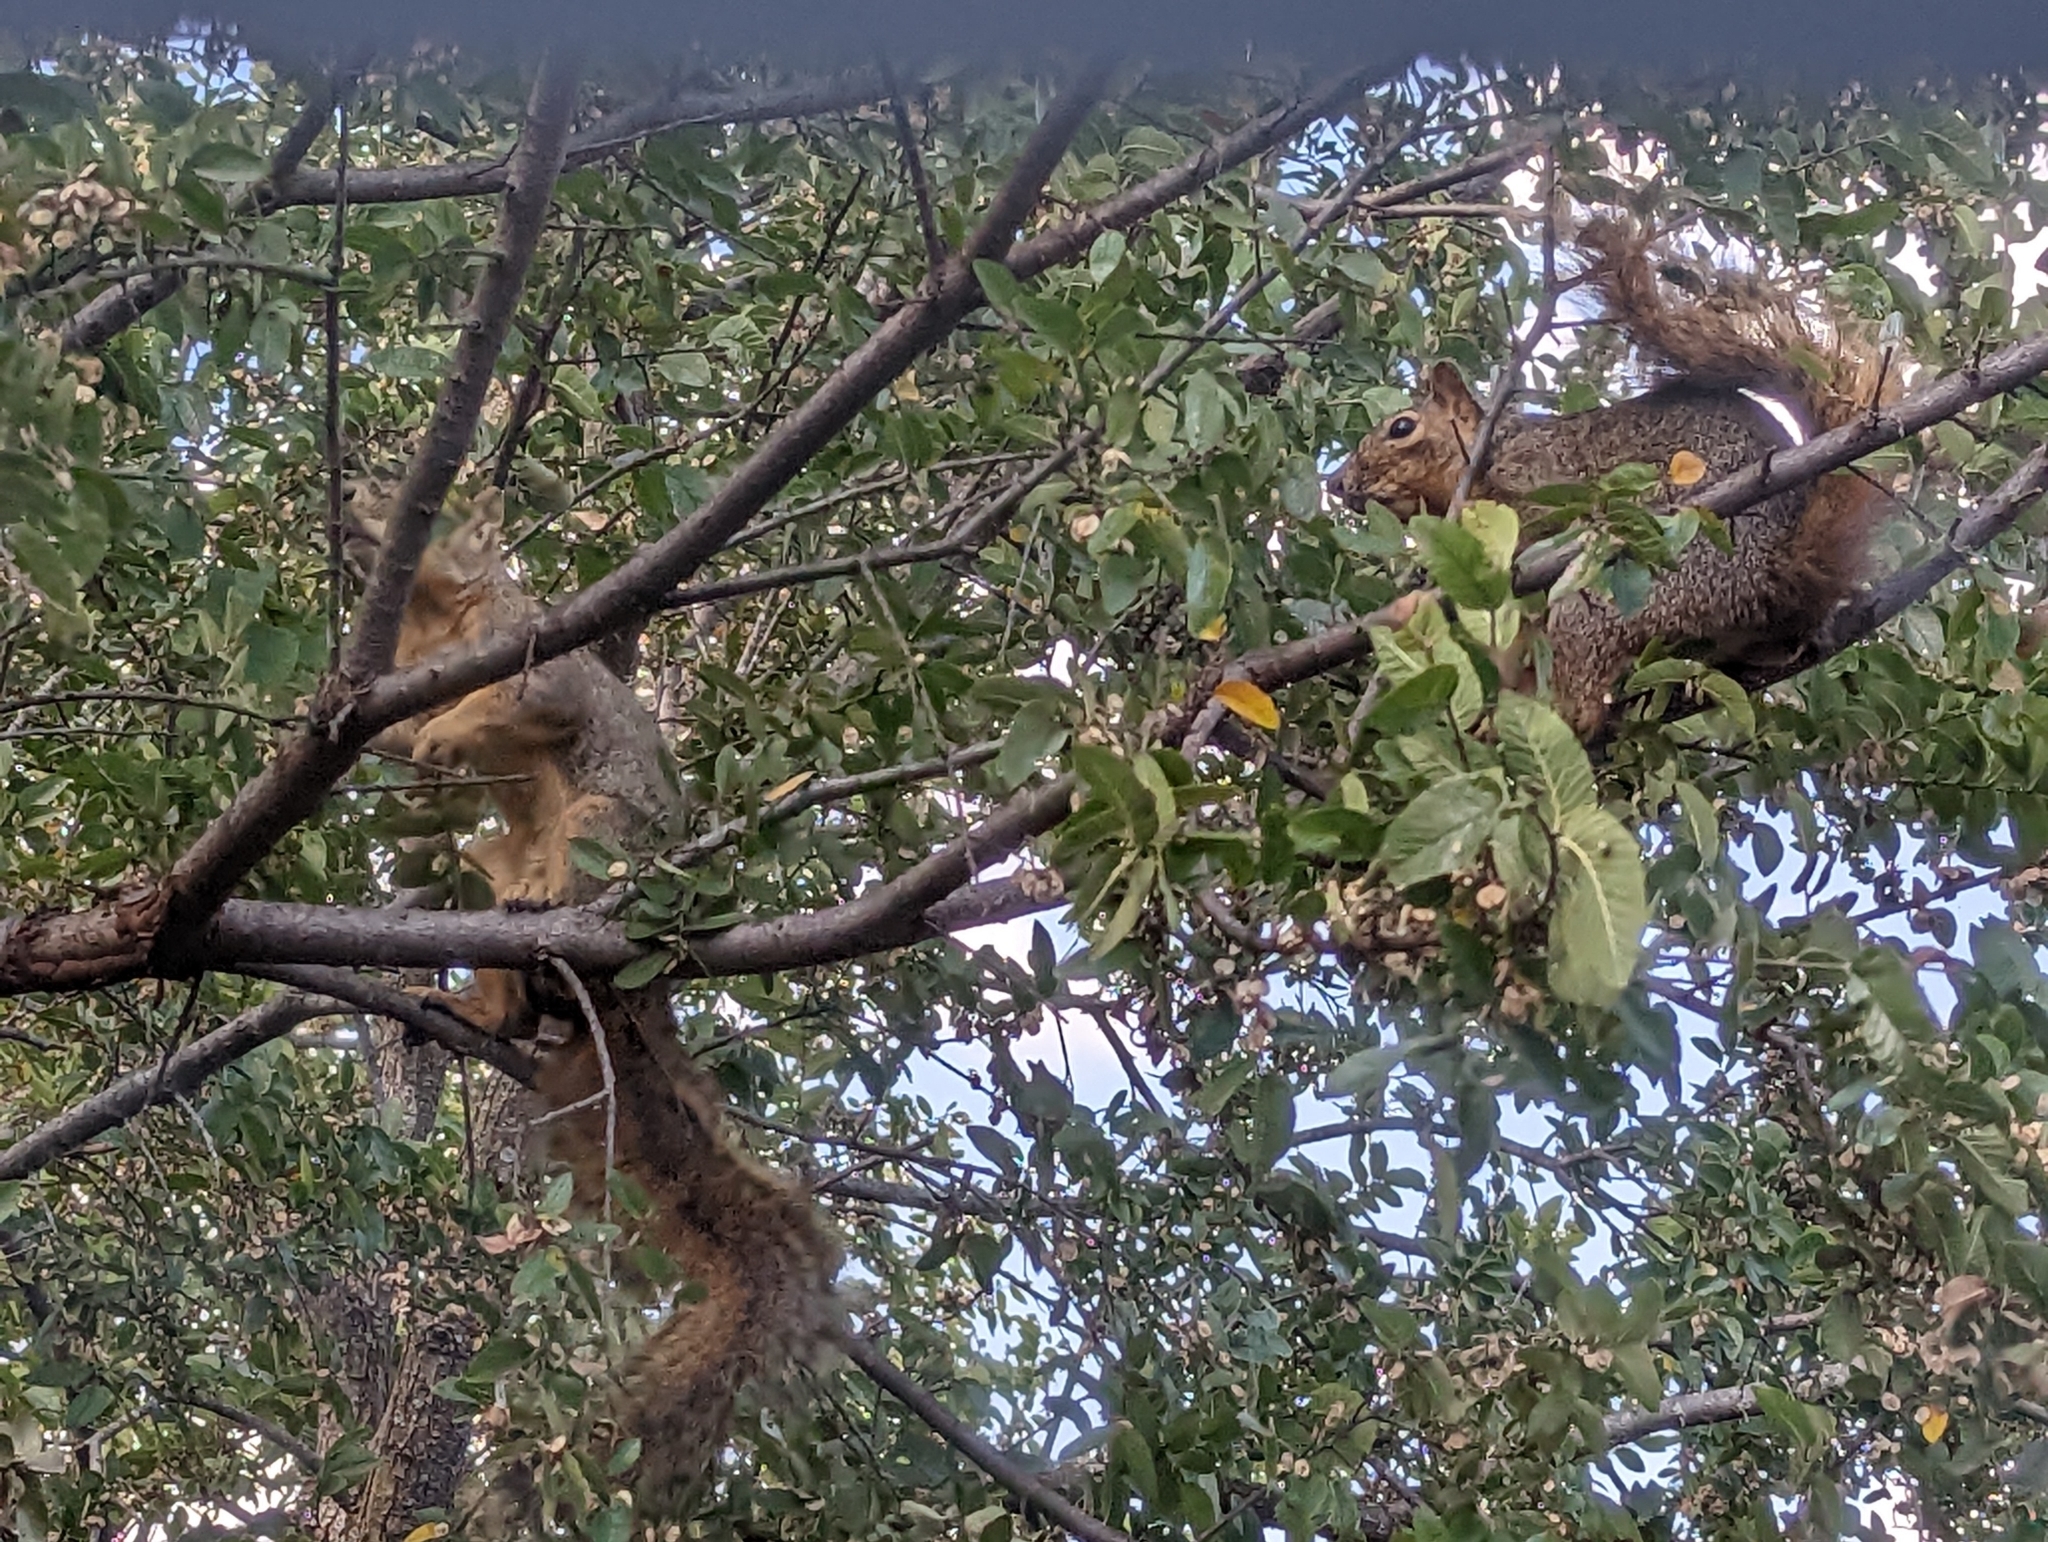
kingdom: Animalia
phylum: Chordata
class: Mammalia
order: Rodentia
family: Sciuridae
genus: Sciurus
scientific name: Sciurus niger
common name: Fox squirrel
